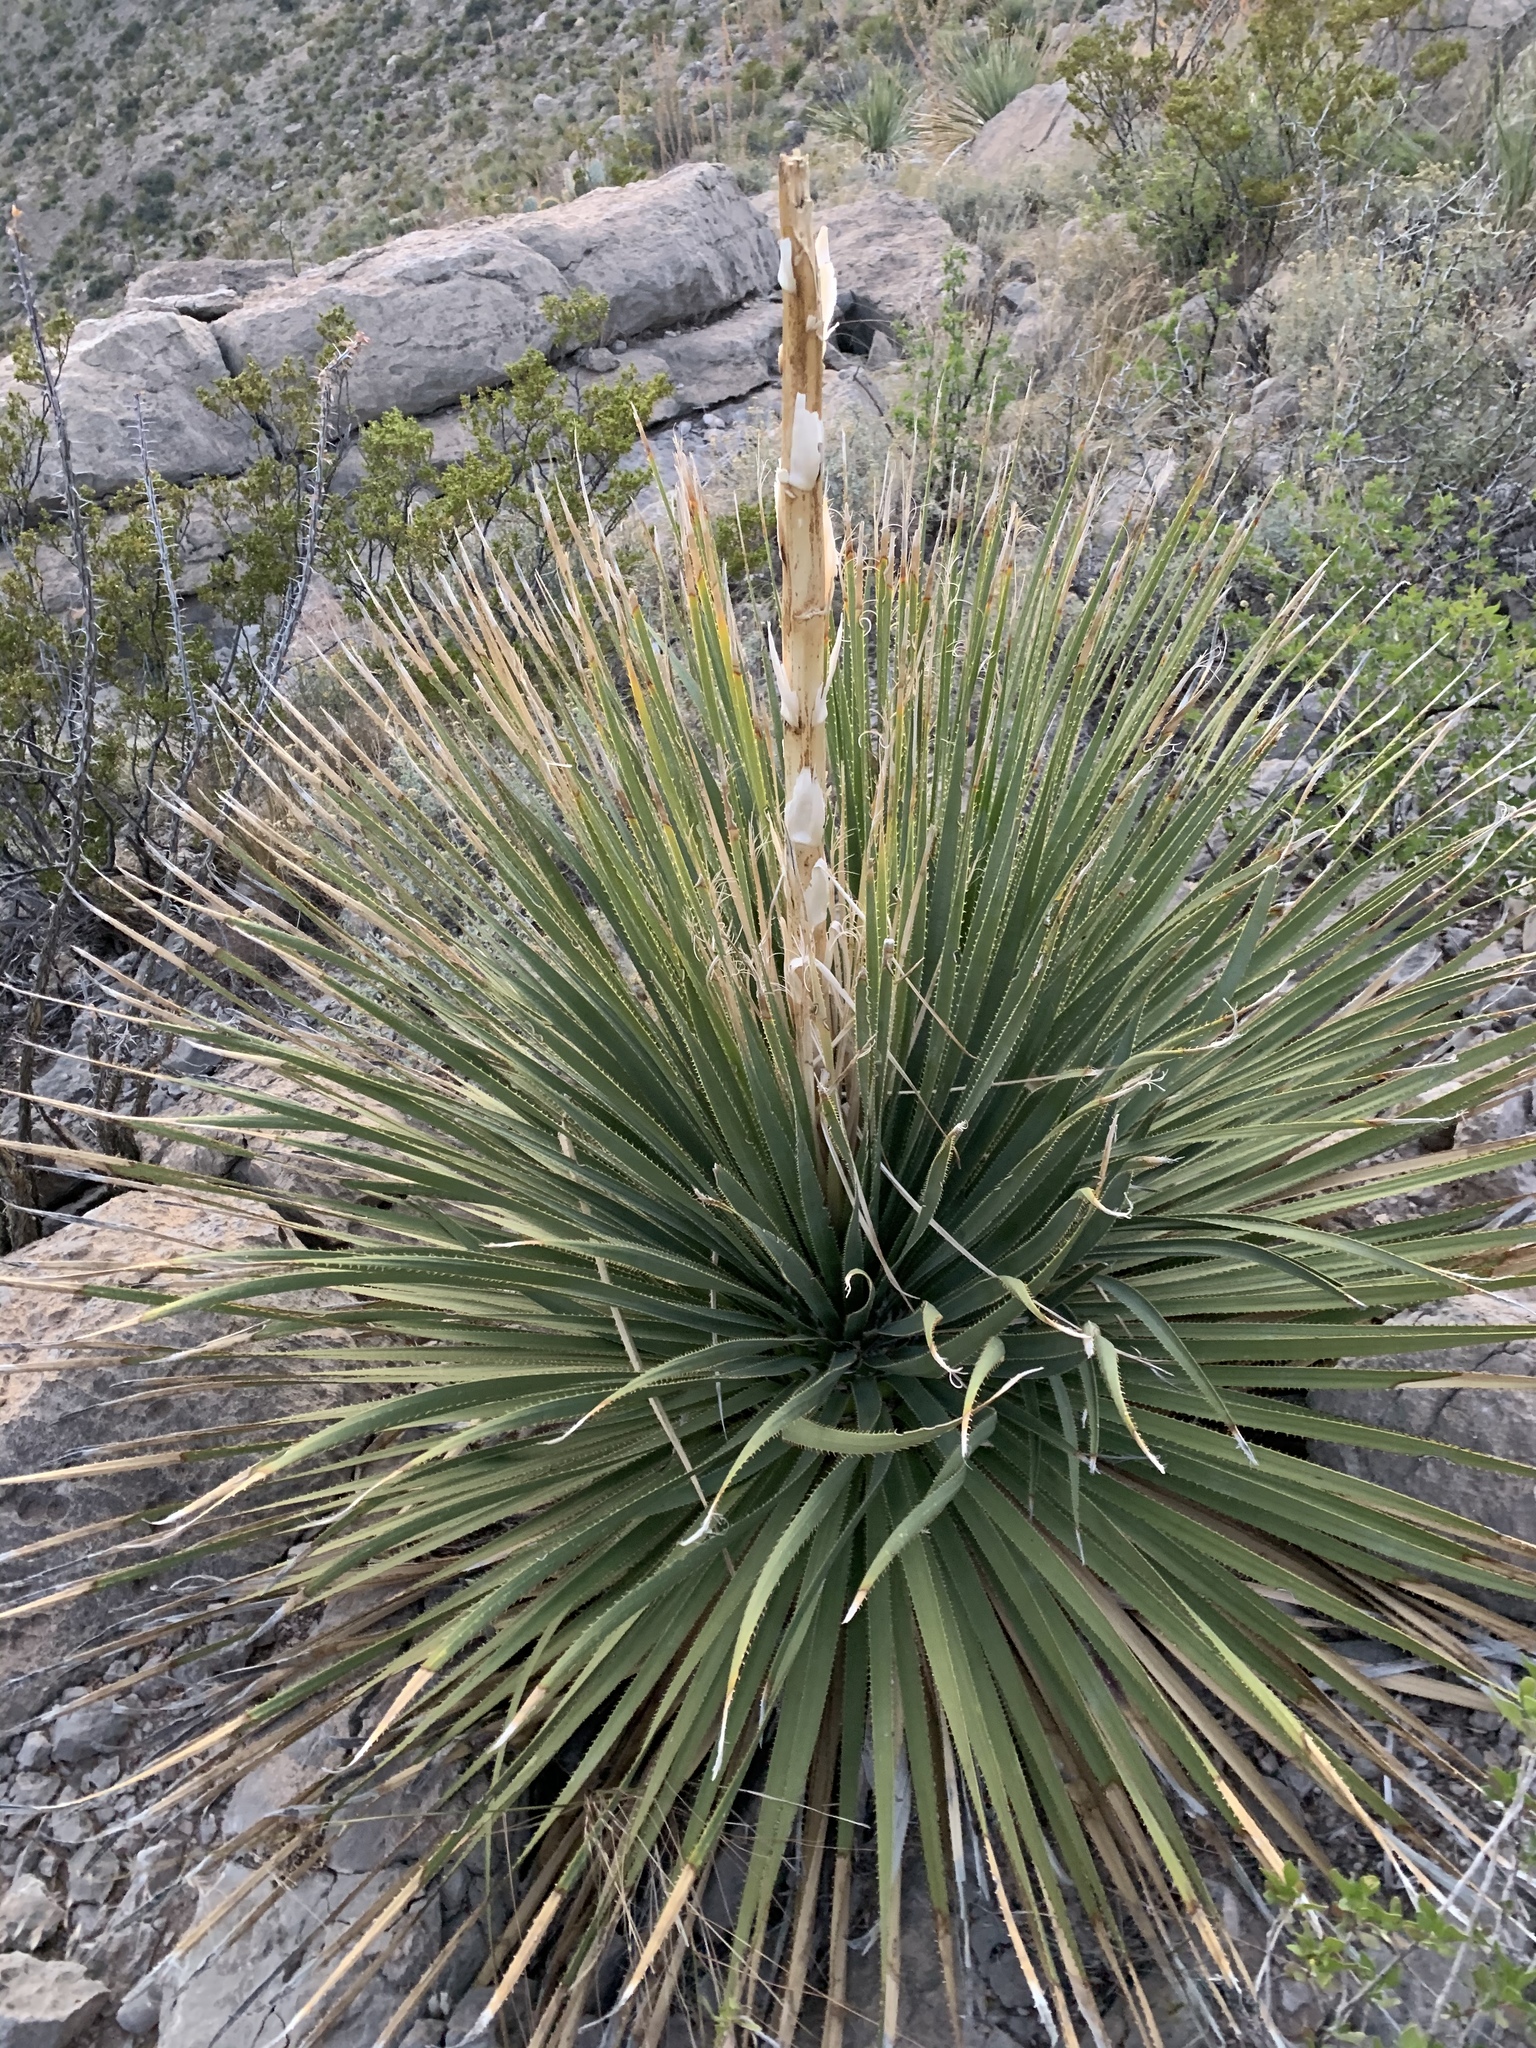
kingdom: Plantae
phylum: Tracheophyta
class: Liliopsida
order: Asparagales
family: Asparagaceae
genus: Dasylirion
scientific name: Dasylirion wheeleri
